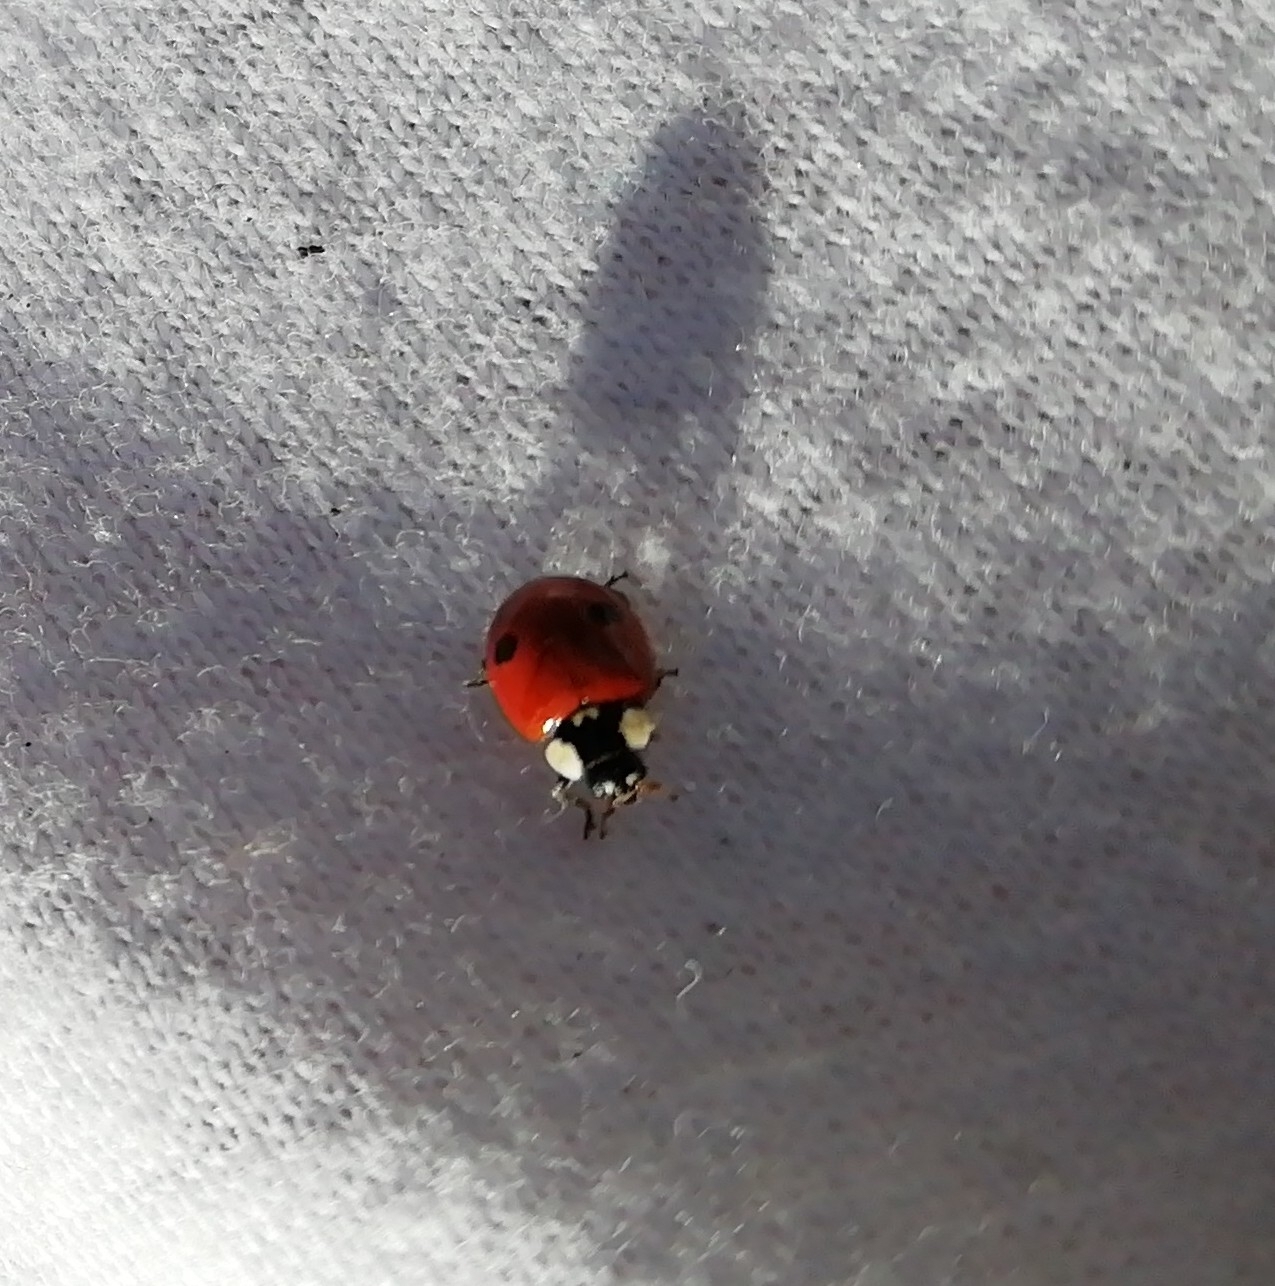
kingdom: Animalia
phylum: Arthropoda
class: Insecta
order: Coleoptera
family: Coccinellidae
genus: Adalia
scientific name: Adalia bipunctata
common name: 2-spot ladybird
